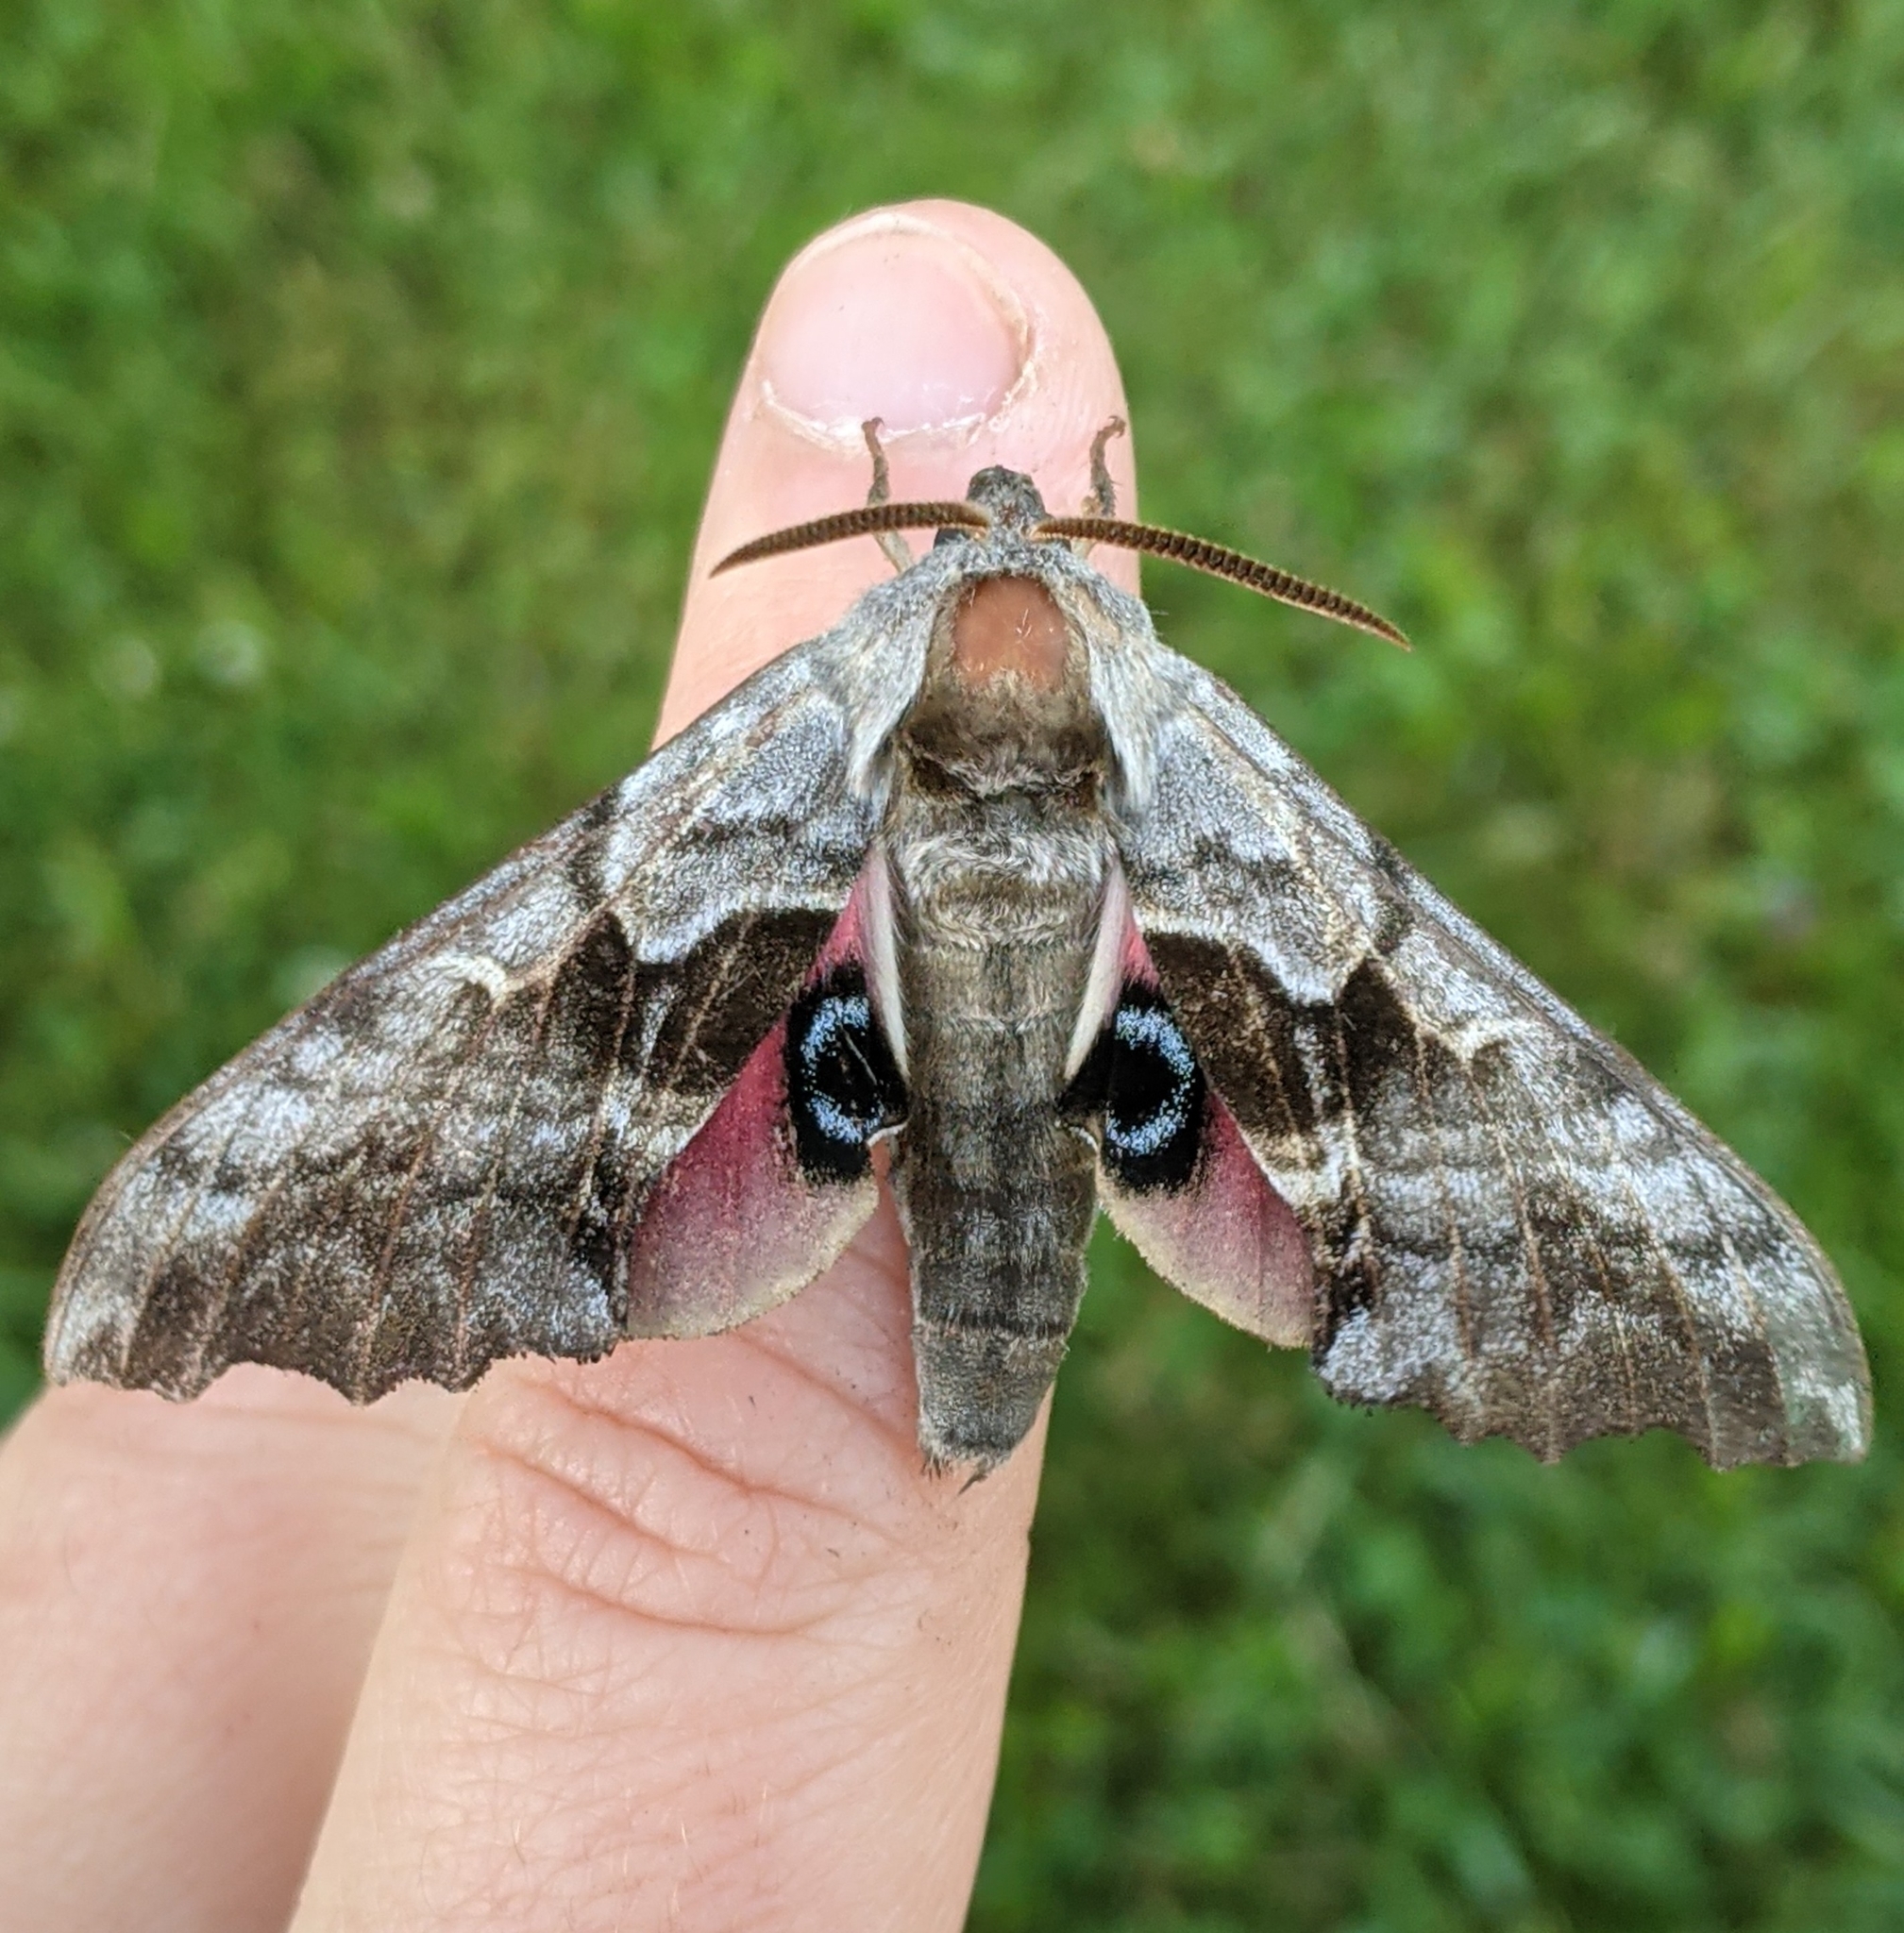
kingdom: Animalia
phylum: Arthropoda
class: Insecta
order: Lepidoptera
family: Sphingidae
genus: Smerinthus
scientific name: Smerinthus cerisyi
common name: Cerisy's sphinx moth
